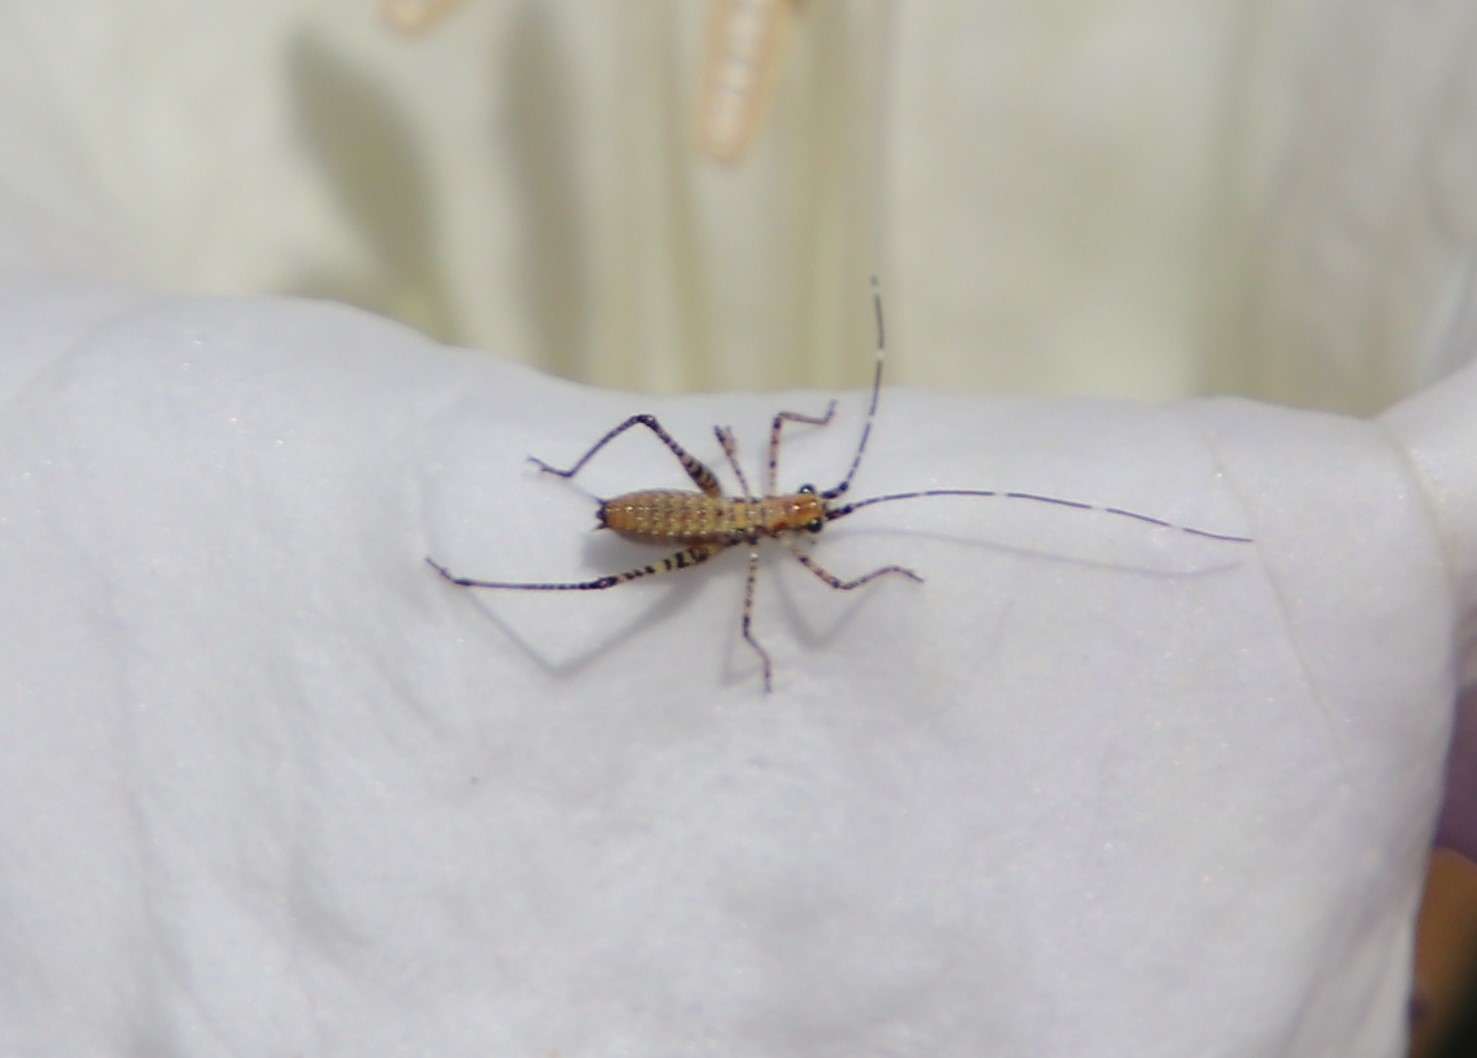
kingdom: Animalia
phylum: Arthropoda
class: Insecta
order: Orthoptera
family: Tettigoniidae
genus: Scudderia
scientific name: Scudderia
